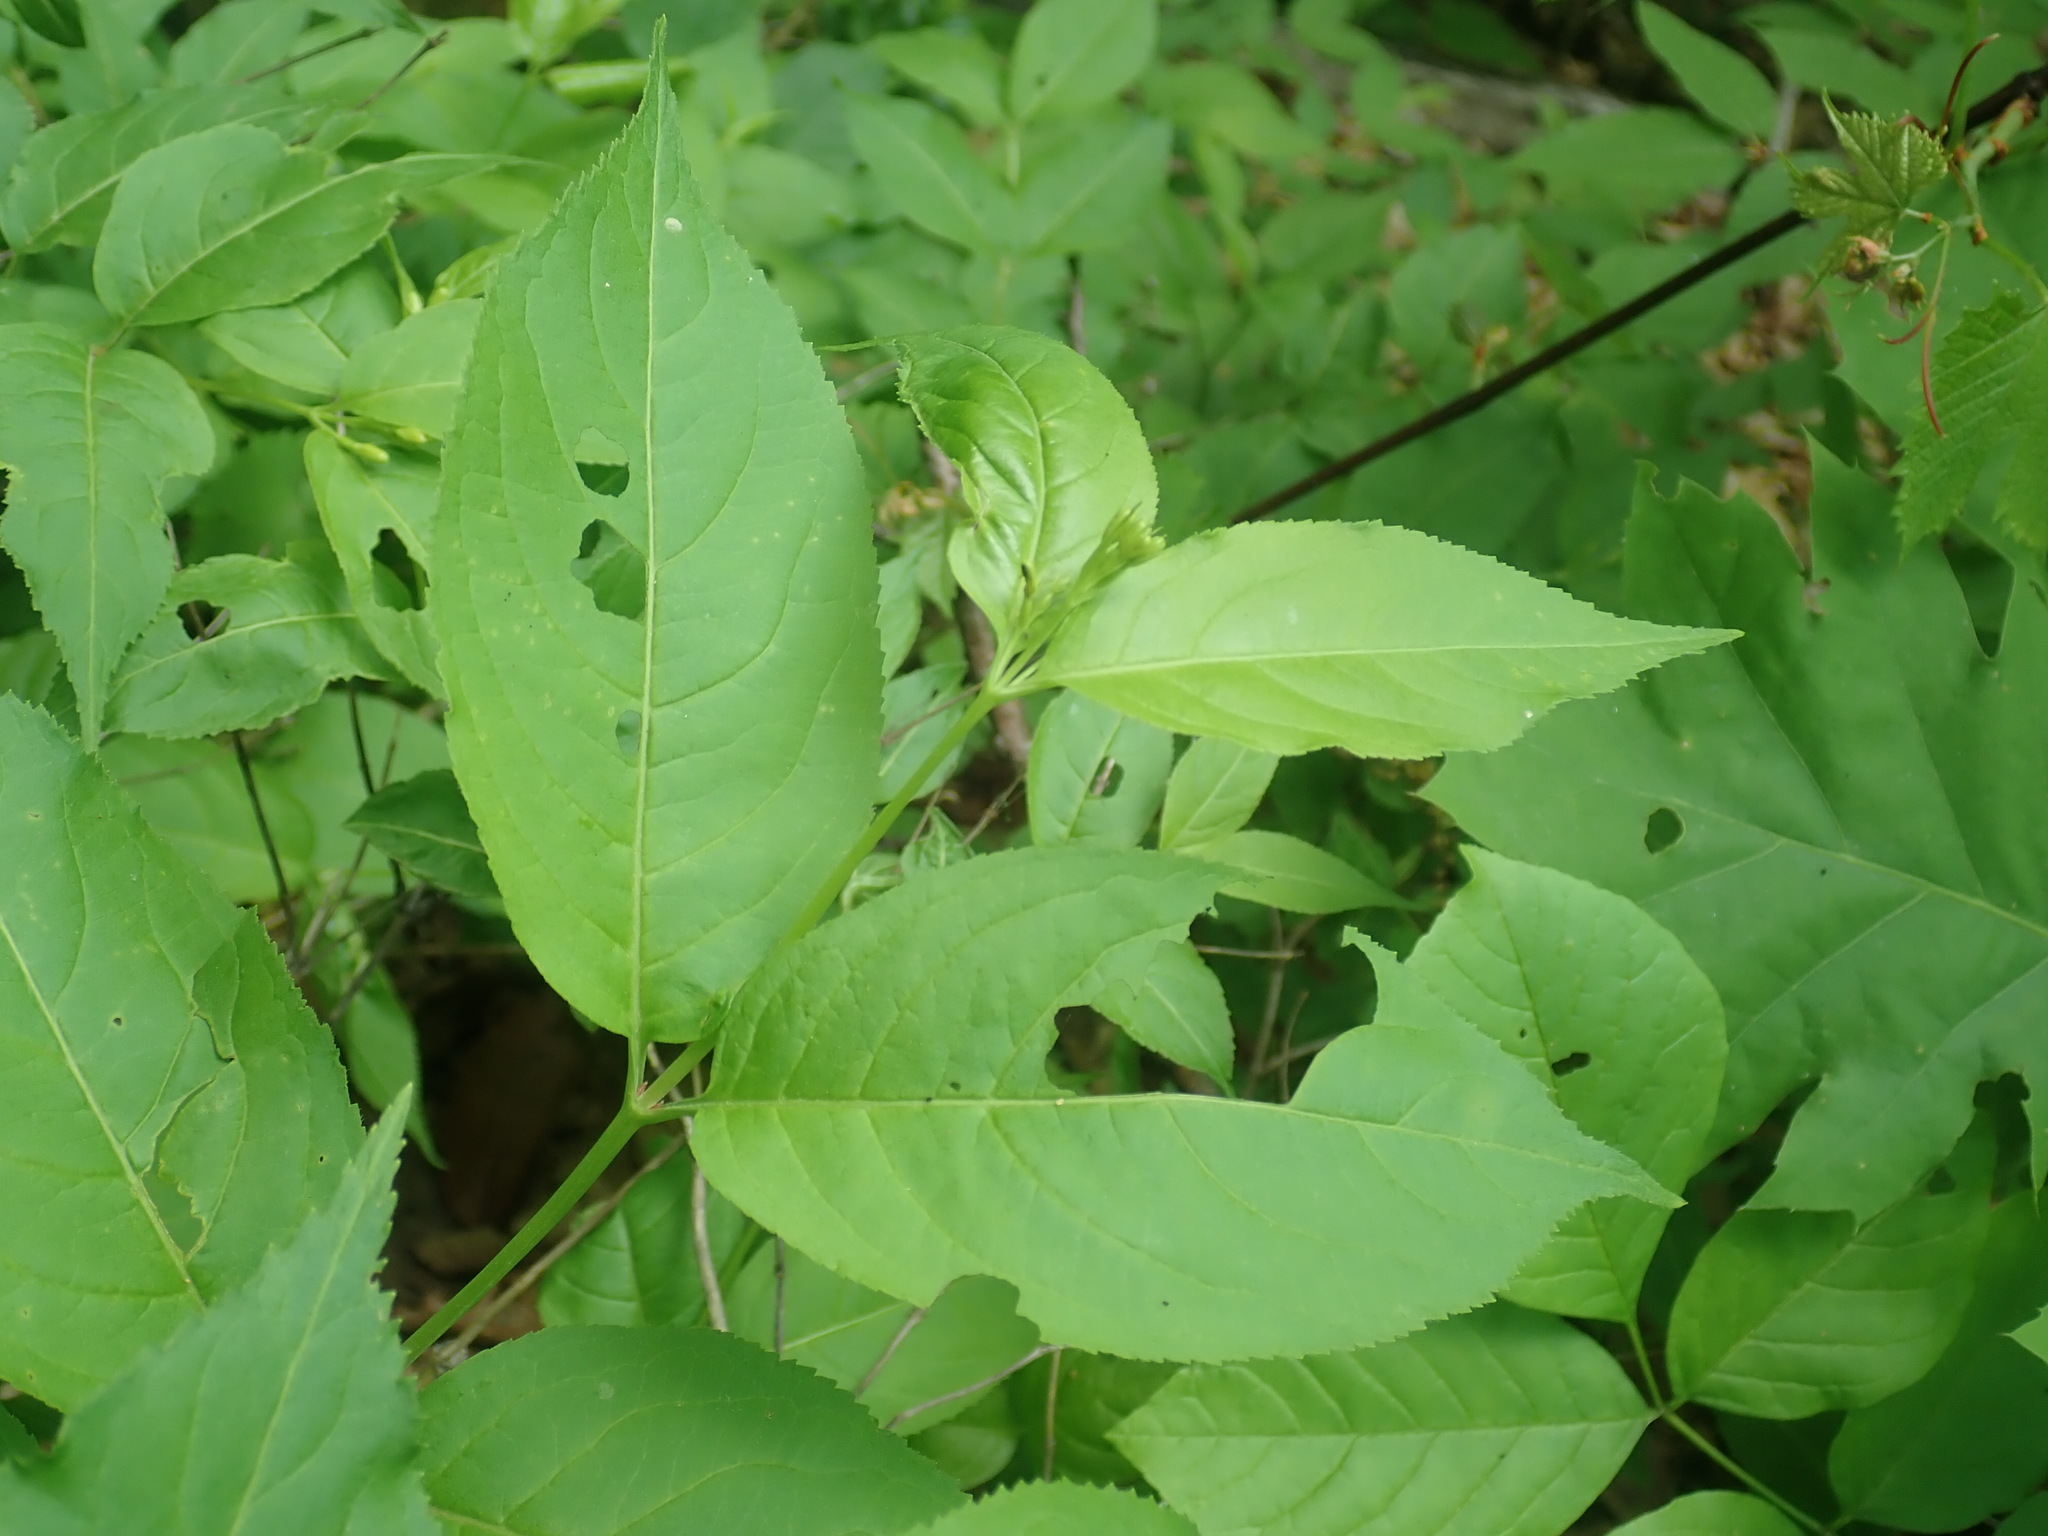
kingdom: Plantae
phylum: Tracheophyta
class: Magnoliopsida
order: Dipsacales
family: Caprifoliaceae
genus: Diervilla
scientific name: Diervilla lonicera
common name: Bush-honeysuckle
